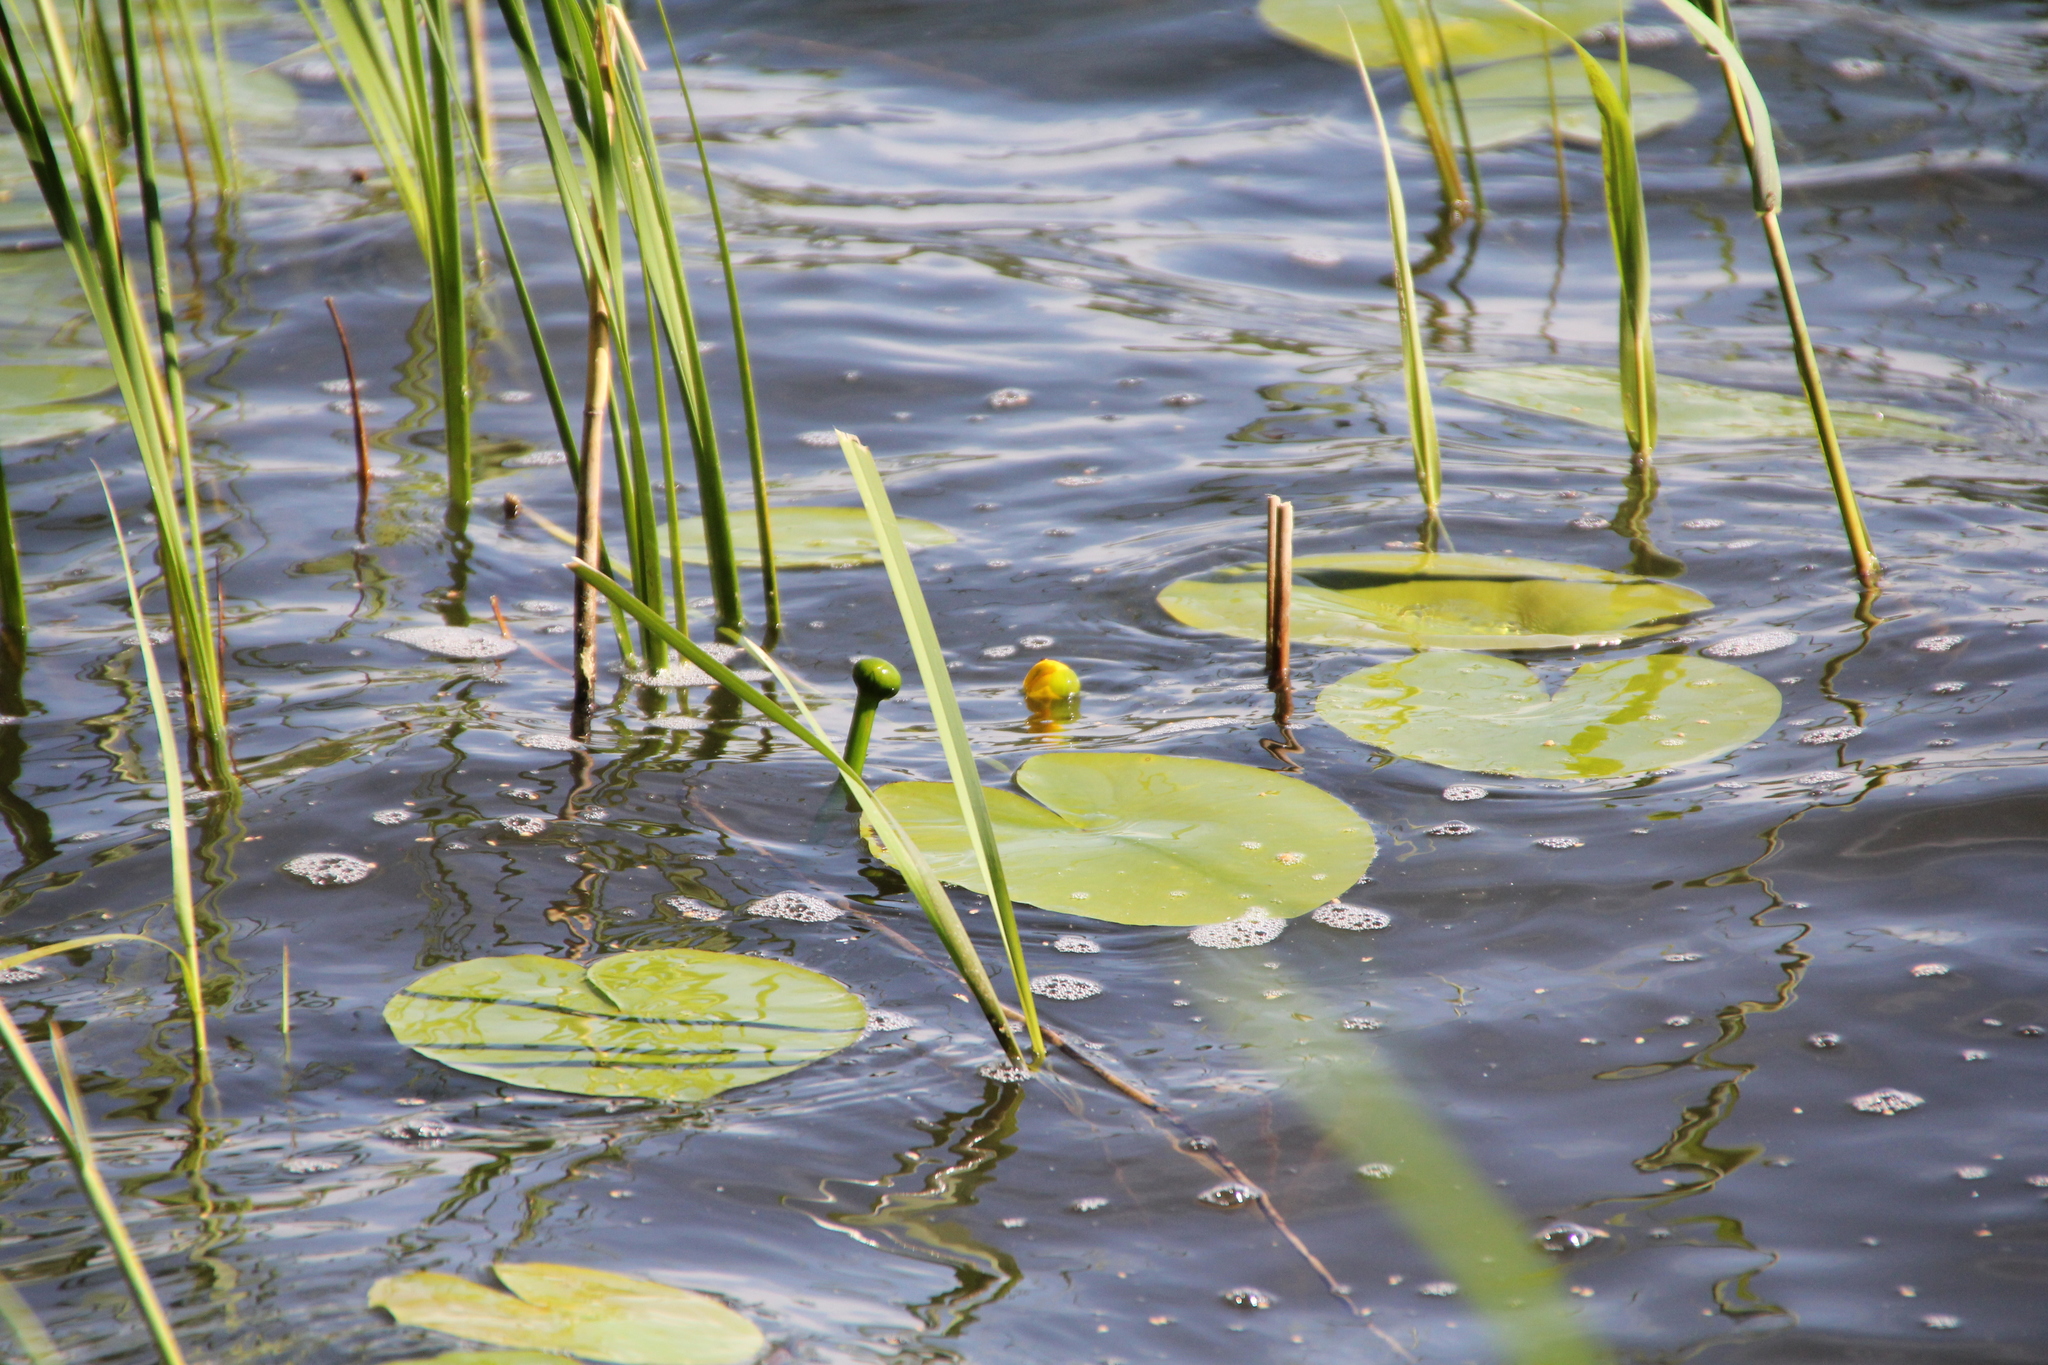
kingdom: Plantae
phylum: Tracheophyta
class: Magnoliopsida
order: Nymphaeales
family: Nymphaeaceae
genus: Nuphar
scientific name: Nuphar lutea
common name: Yellow water-lily
